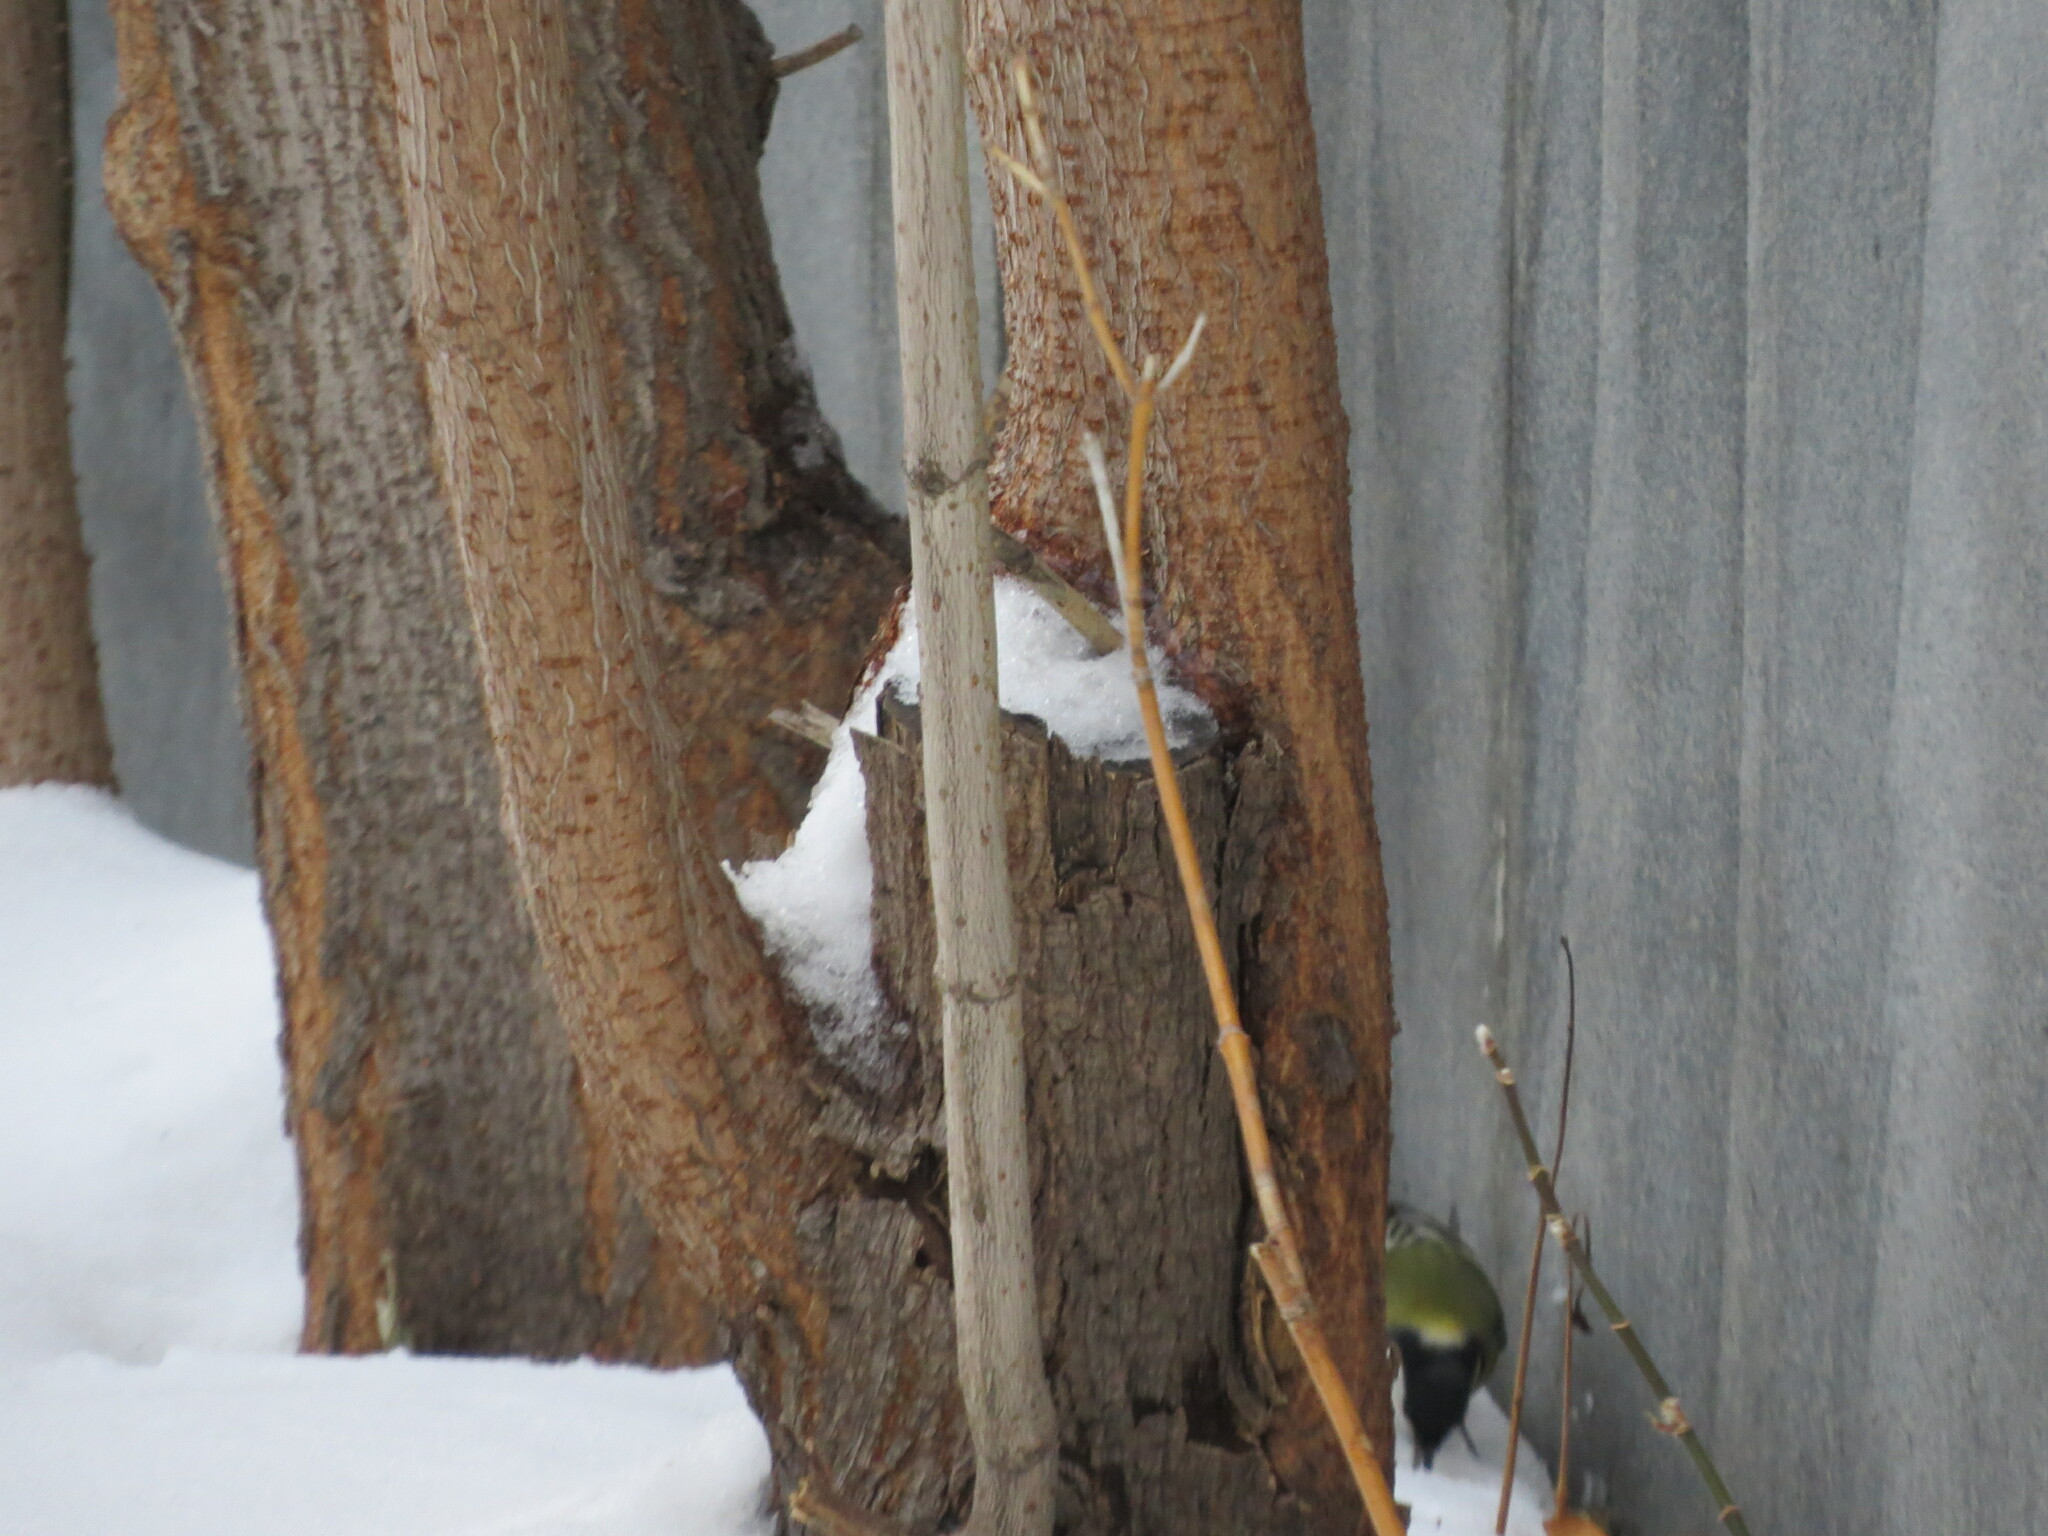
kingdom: Animalia
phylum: Chordata
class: Aves
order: Passeriformes
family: Paridae
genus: Parus
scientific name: Parus major
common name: Great tit
